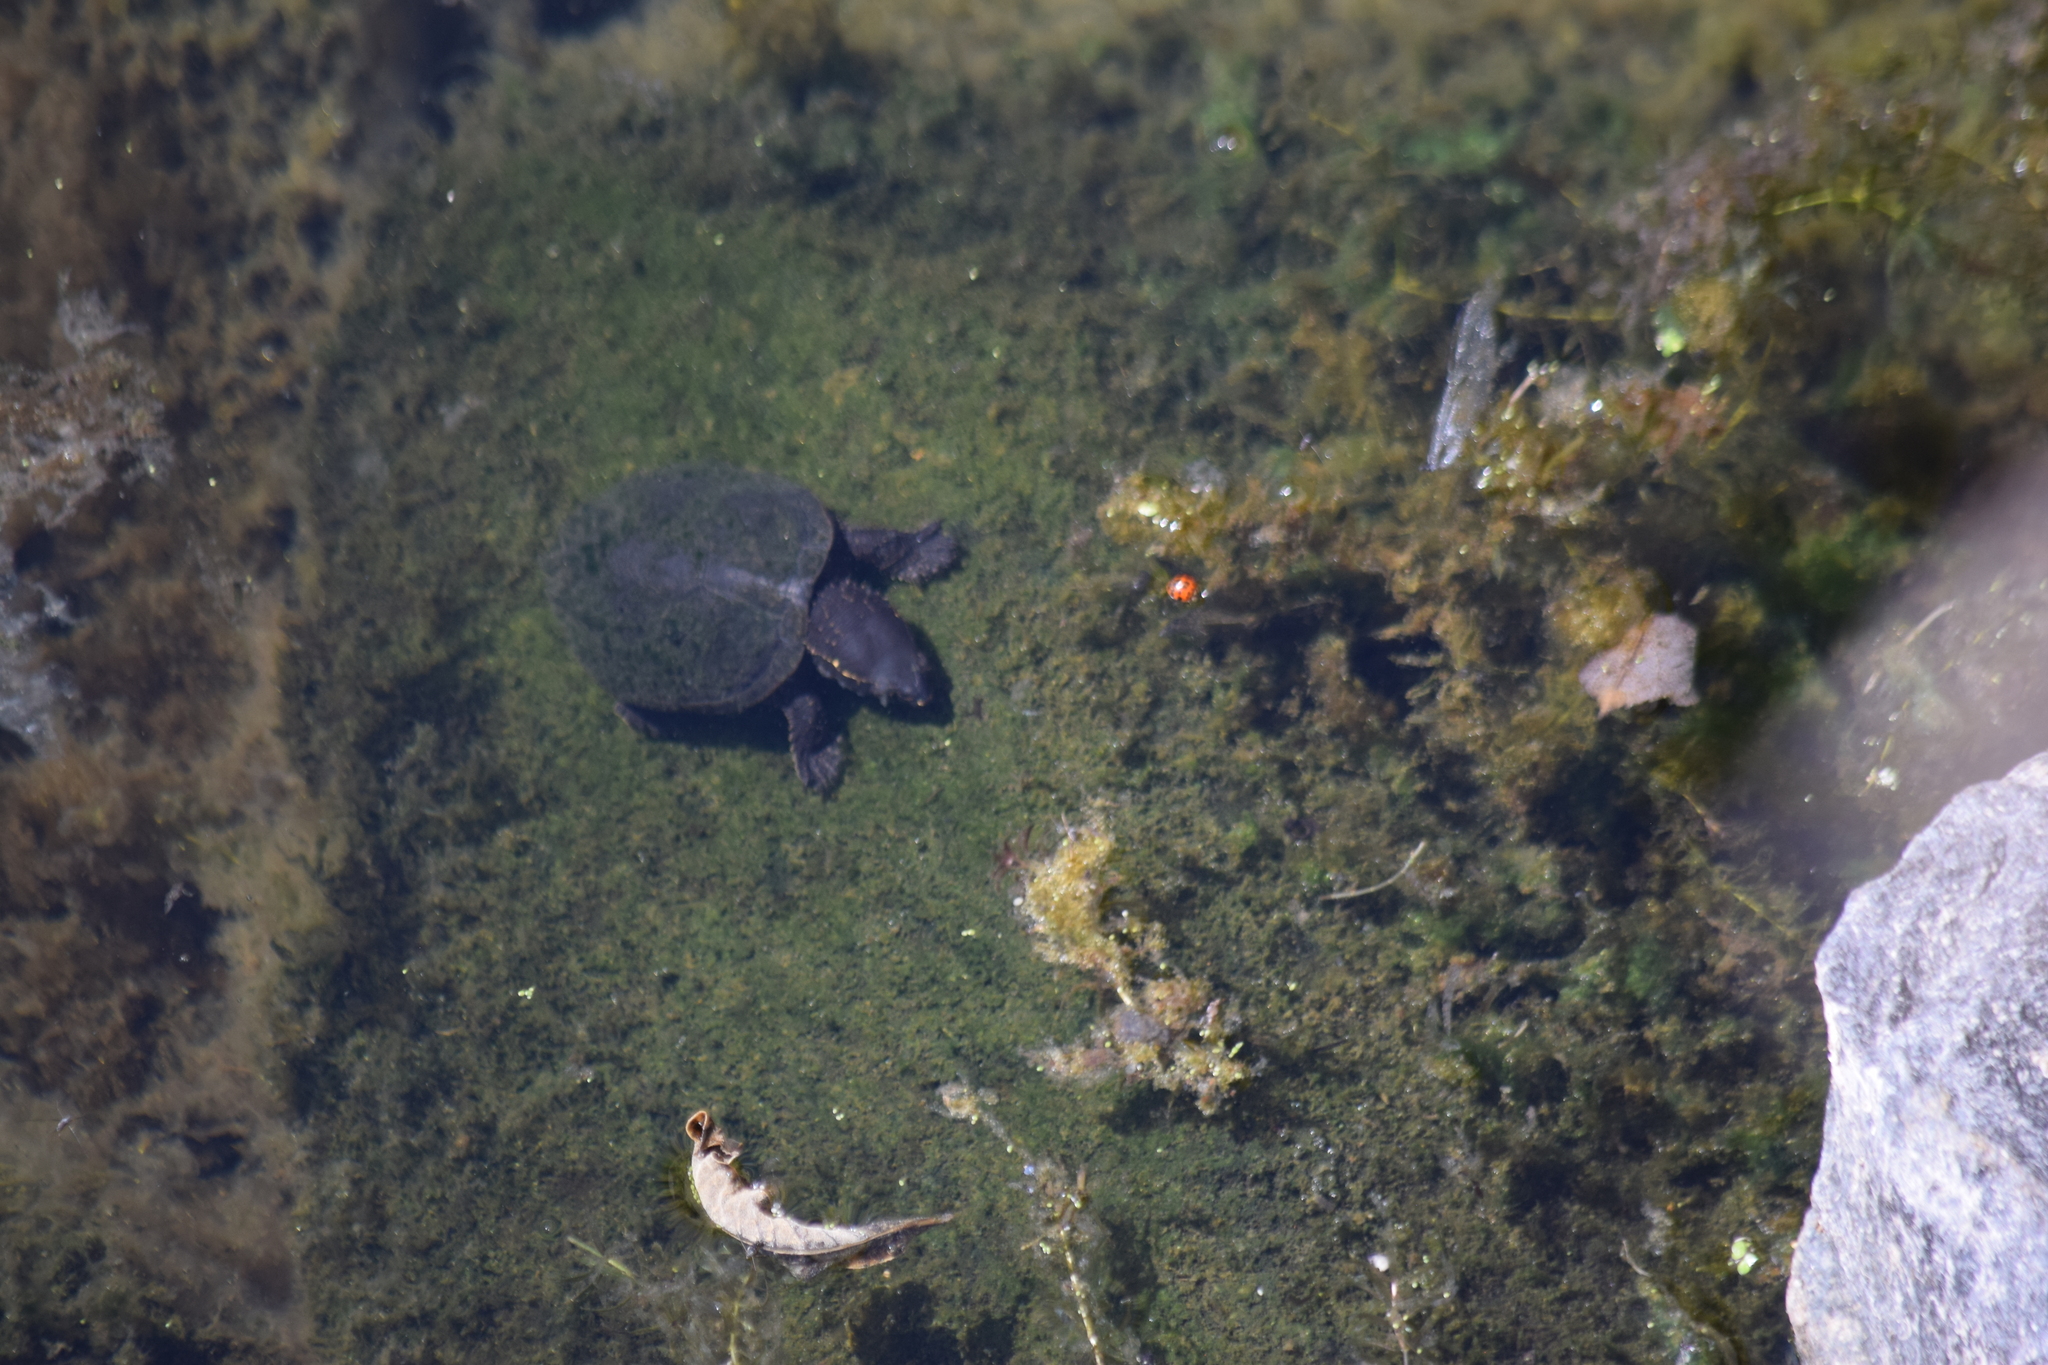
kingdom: Animalia
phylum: Chordata
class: Testudines
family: Kinosternidae
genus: Sternotherus
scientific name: Sternotherus odoratus
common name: Common musk turtle
